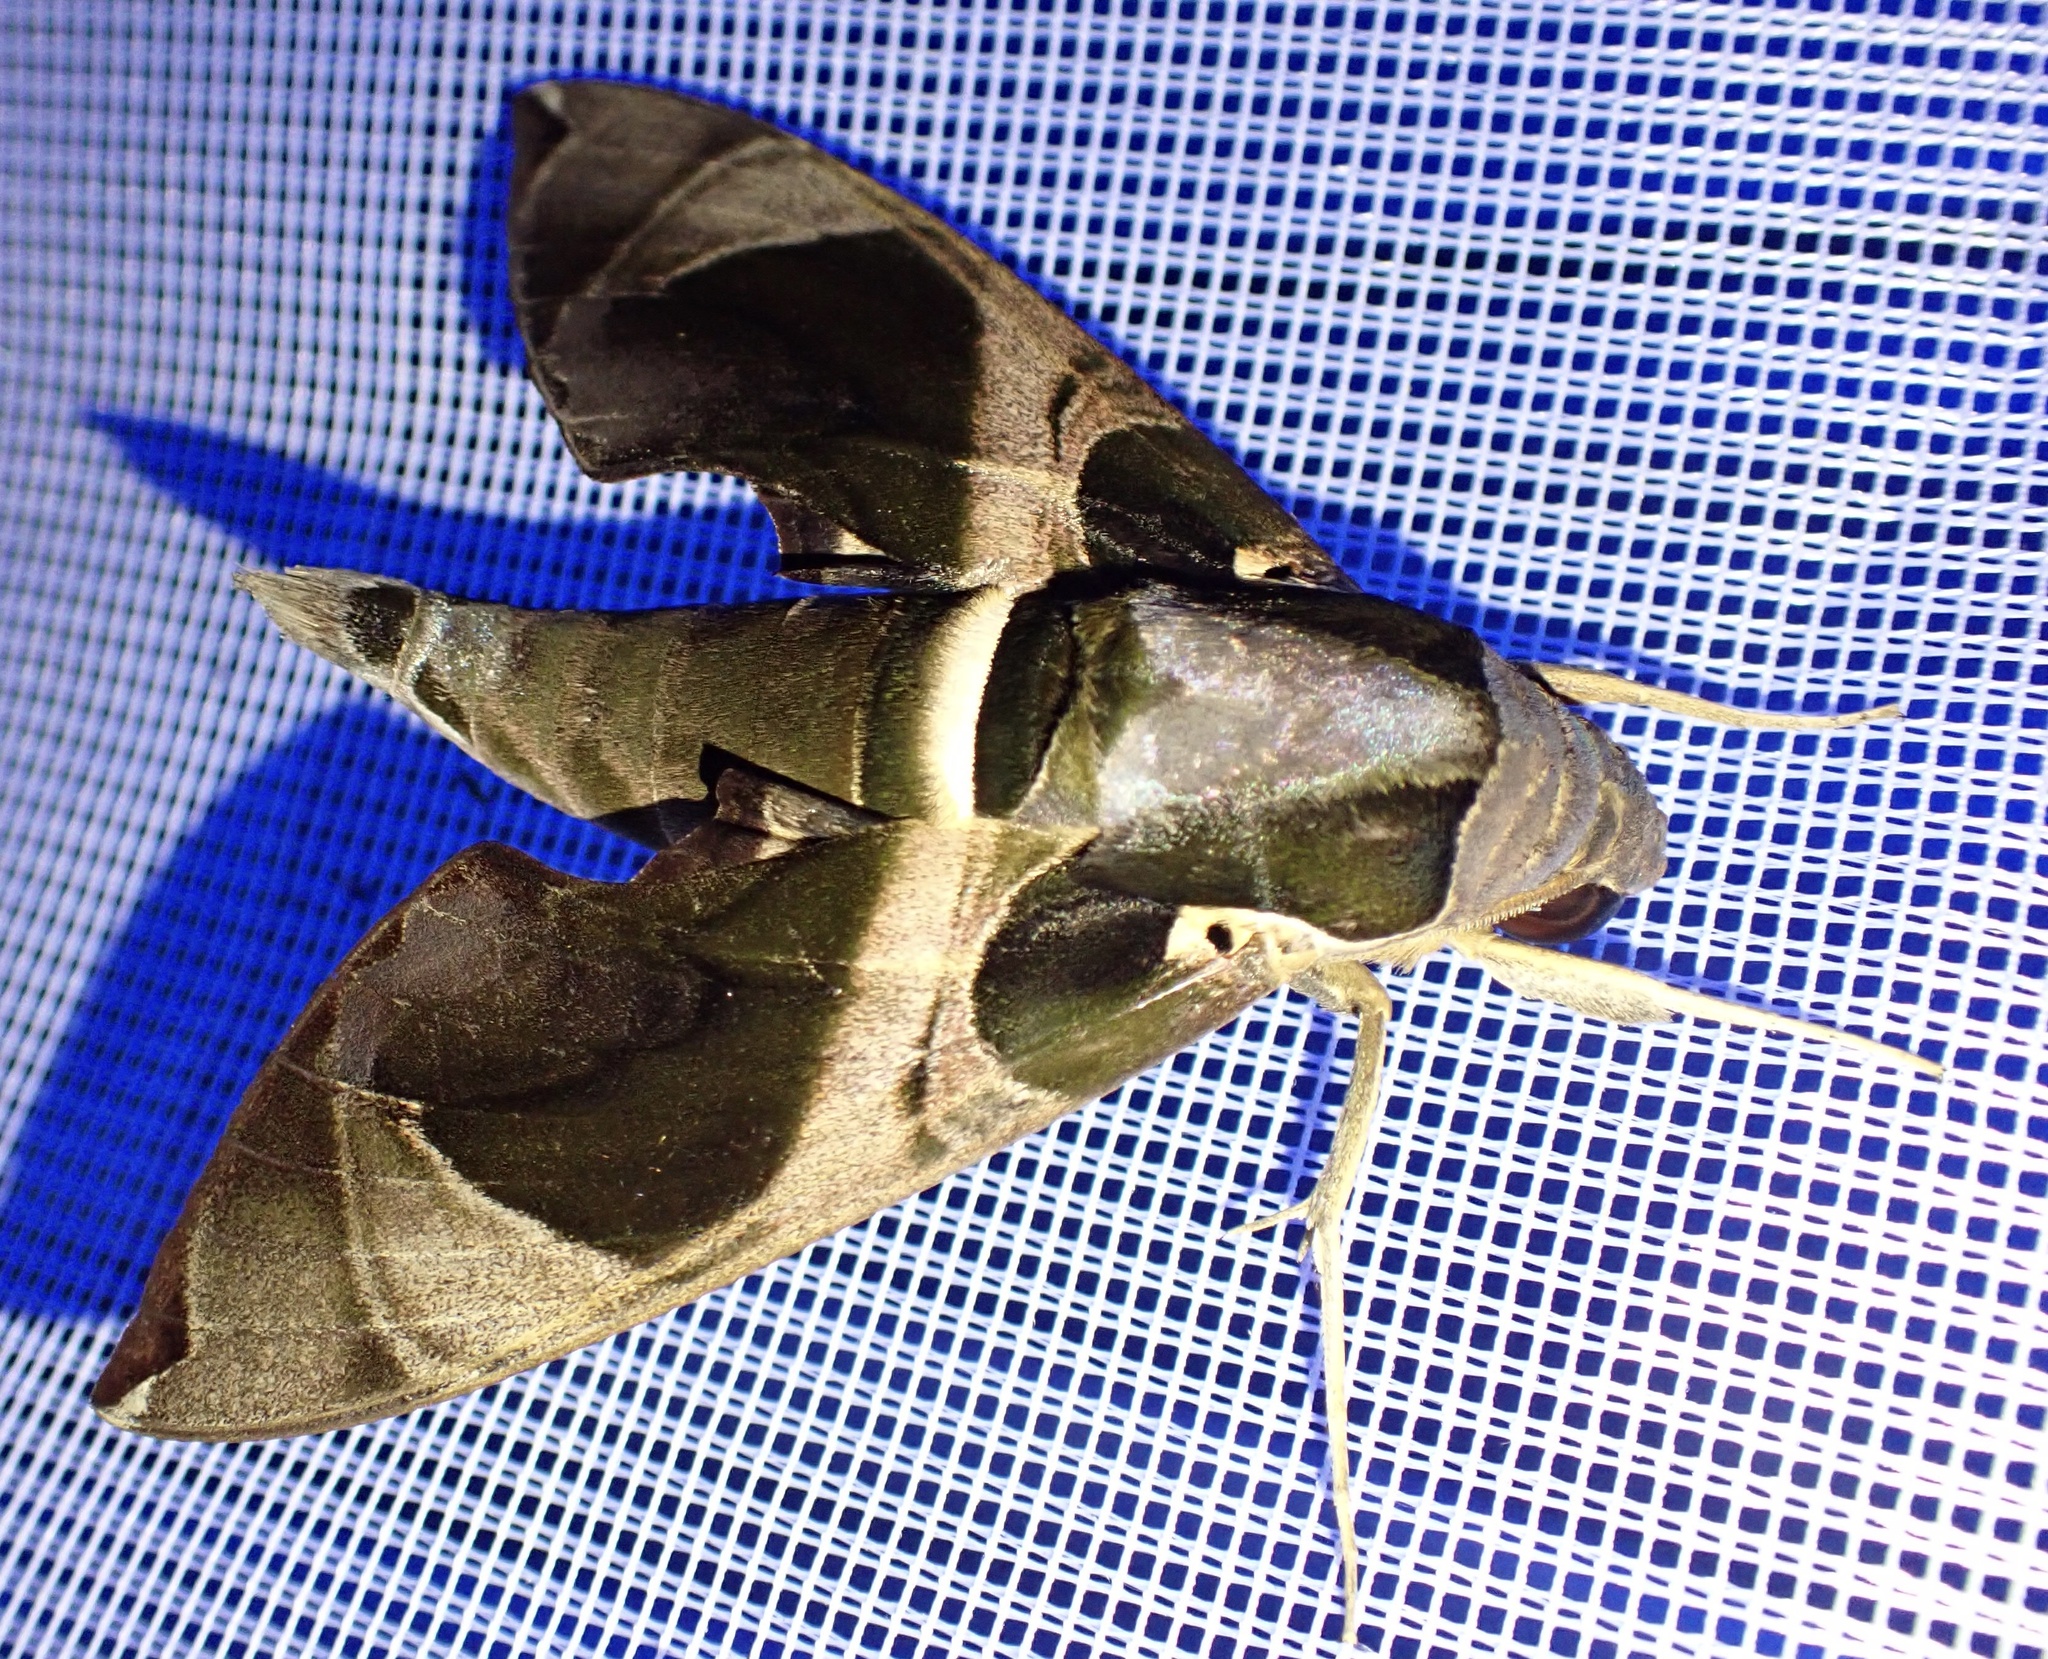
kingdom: Animalia
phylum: Arthropoda
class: Insecta
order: Lepidoptera
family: Sphingidae
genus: Daphnis
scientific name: Daphnis moorei
